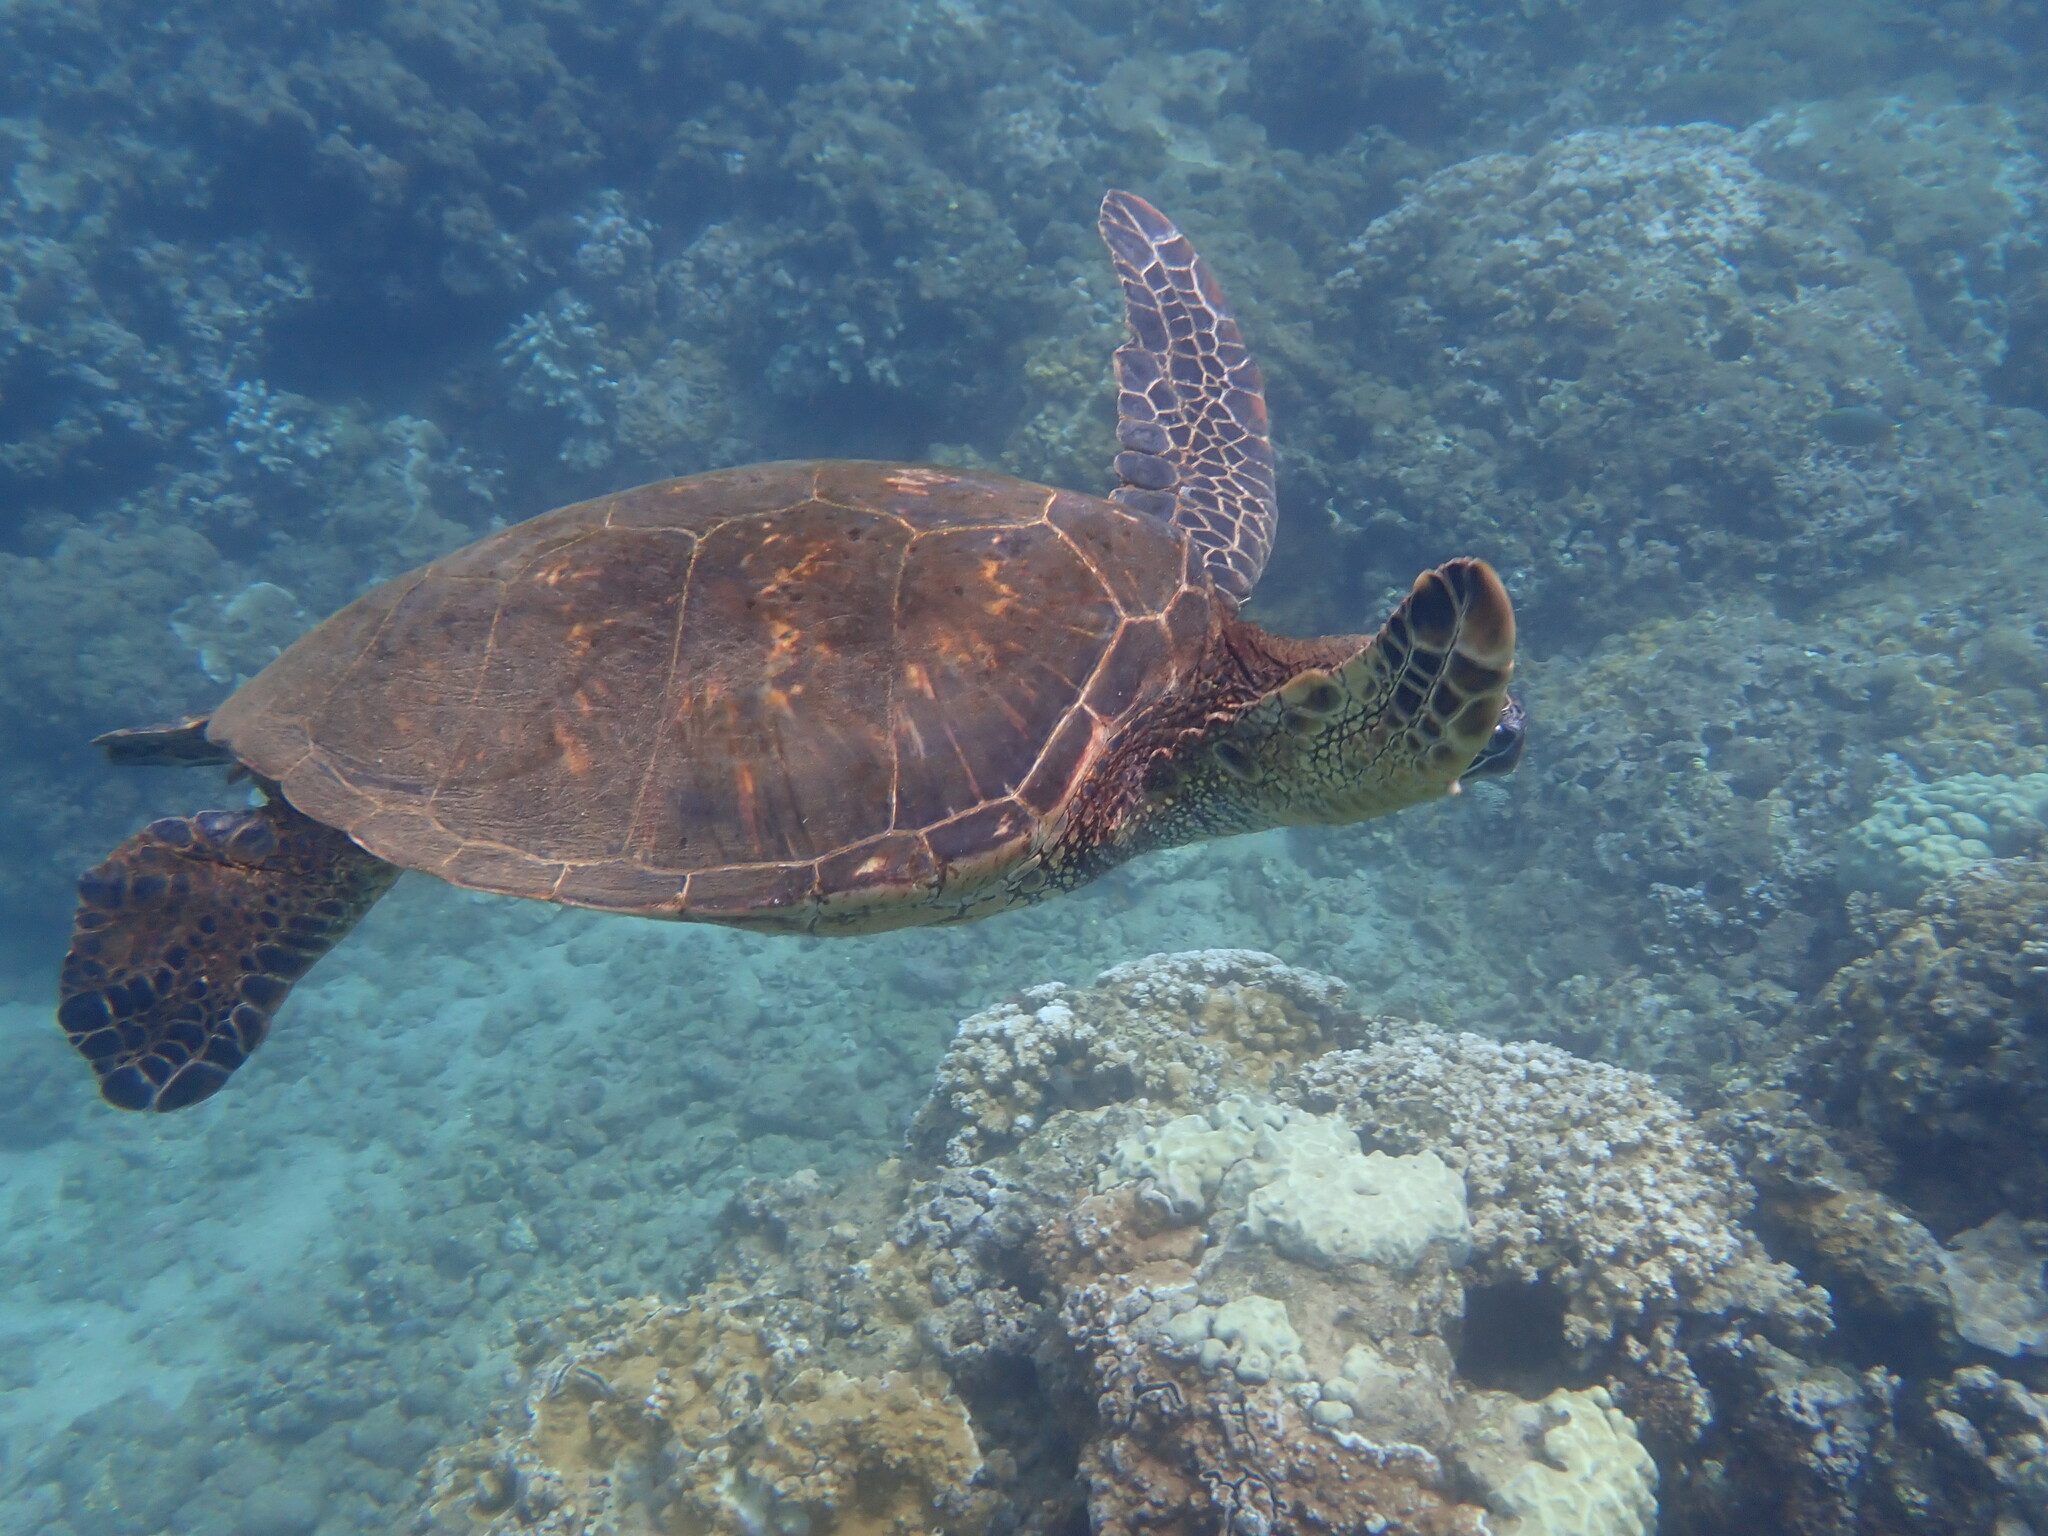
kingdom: Animalia
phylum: Chordata
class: Testudines
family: Cheloniidae
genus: Chelonia
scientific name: Chelonia mydas
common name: Green turtle
